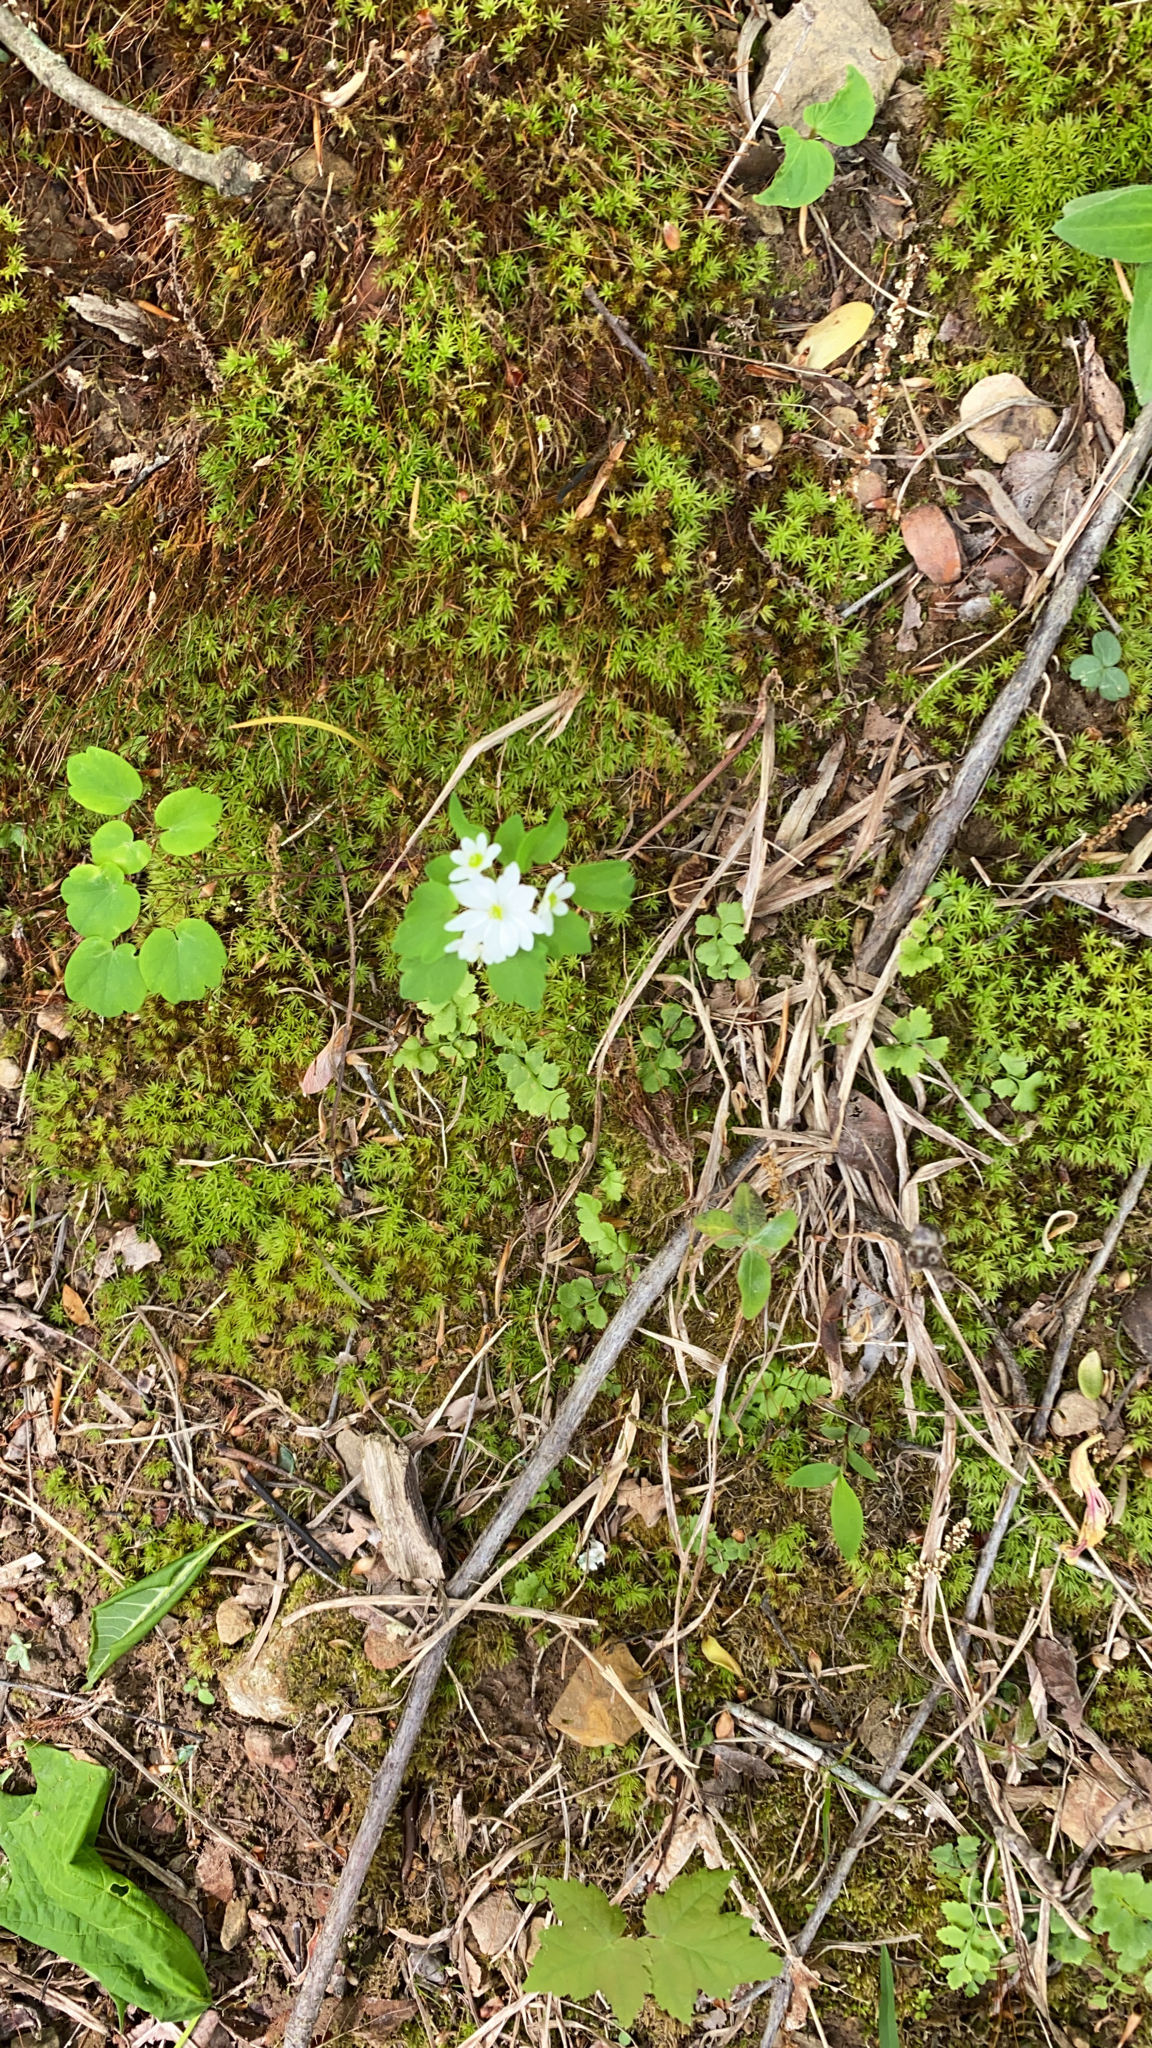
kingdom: Plantae
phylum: Tracheophyta
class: Magnoliopsida
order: Saxifragales
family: Saxifragaceae
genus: Micranthes
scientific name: Micranthes virginiensis
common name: Early saxifrage
